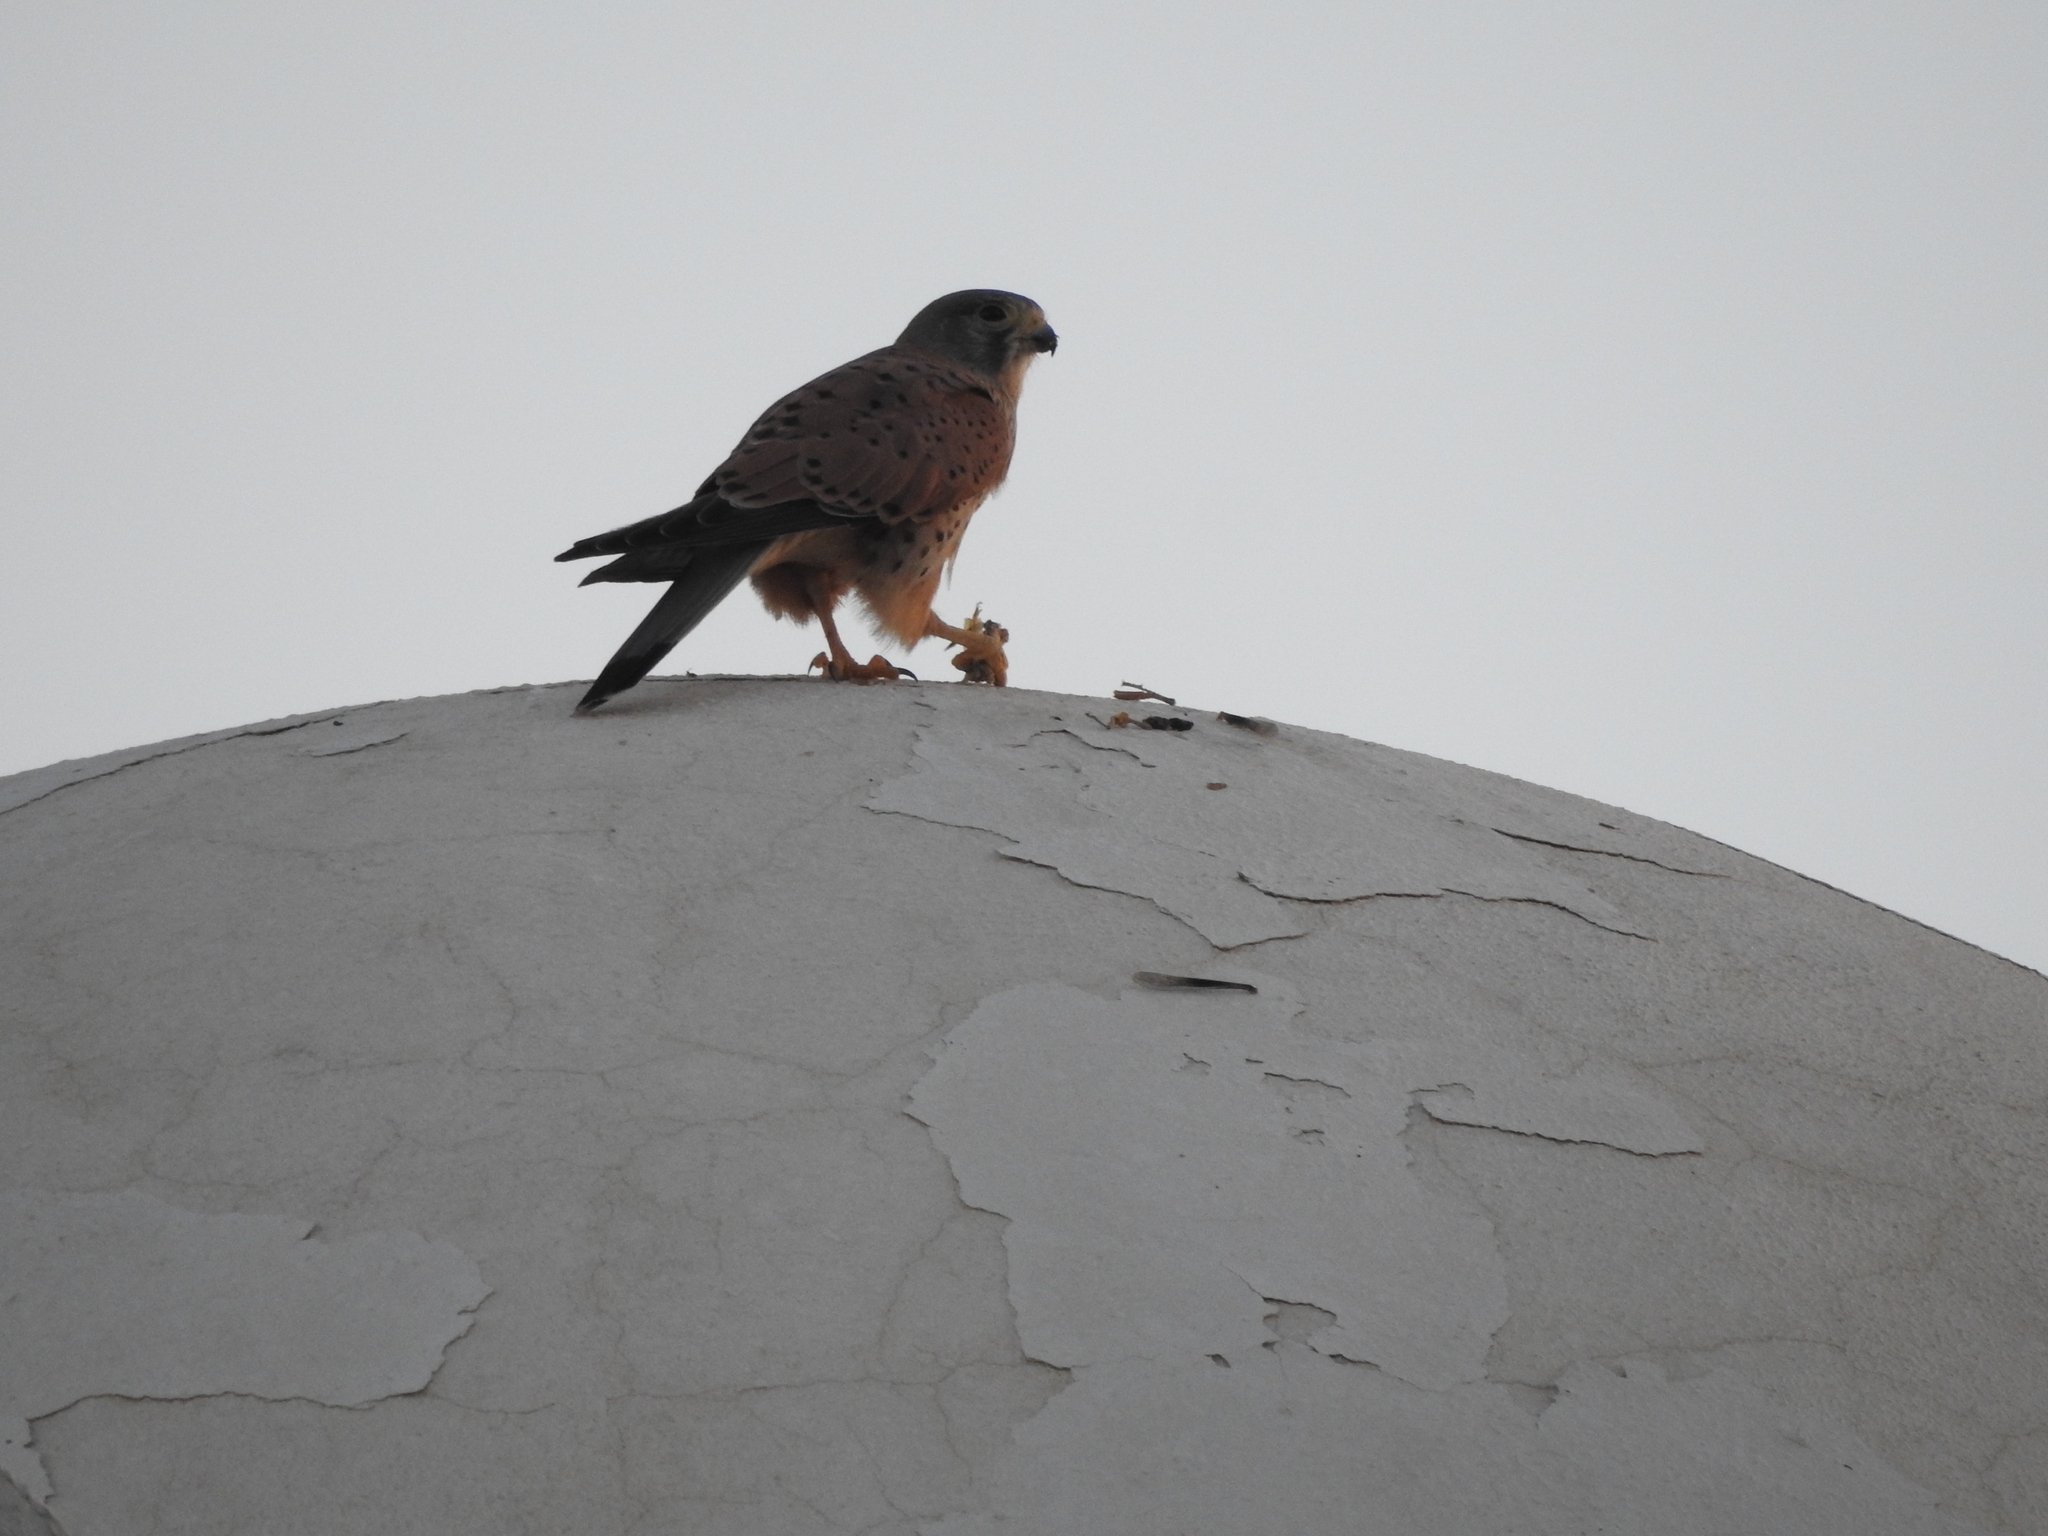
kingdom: Animalia
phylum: Chordata
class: Aves
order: Falconiformes
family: Falconidae
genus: Falco
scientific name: Falco tinnunculus
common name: Common kestrel
